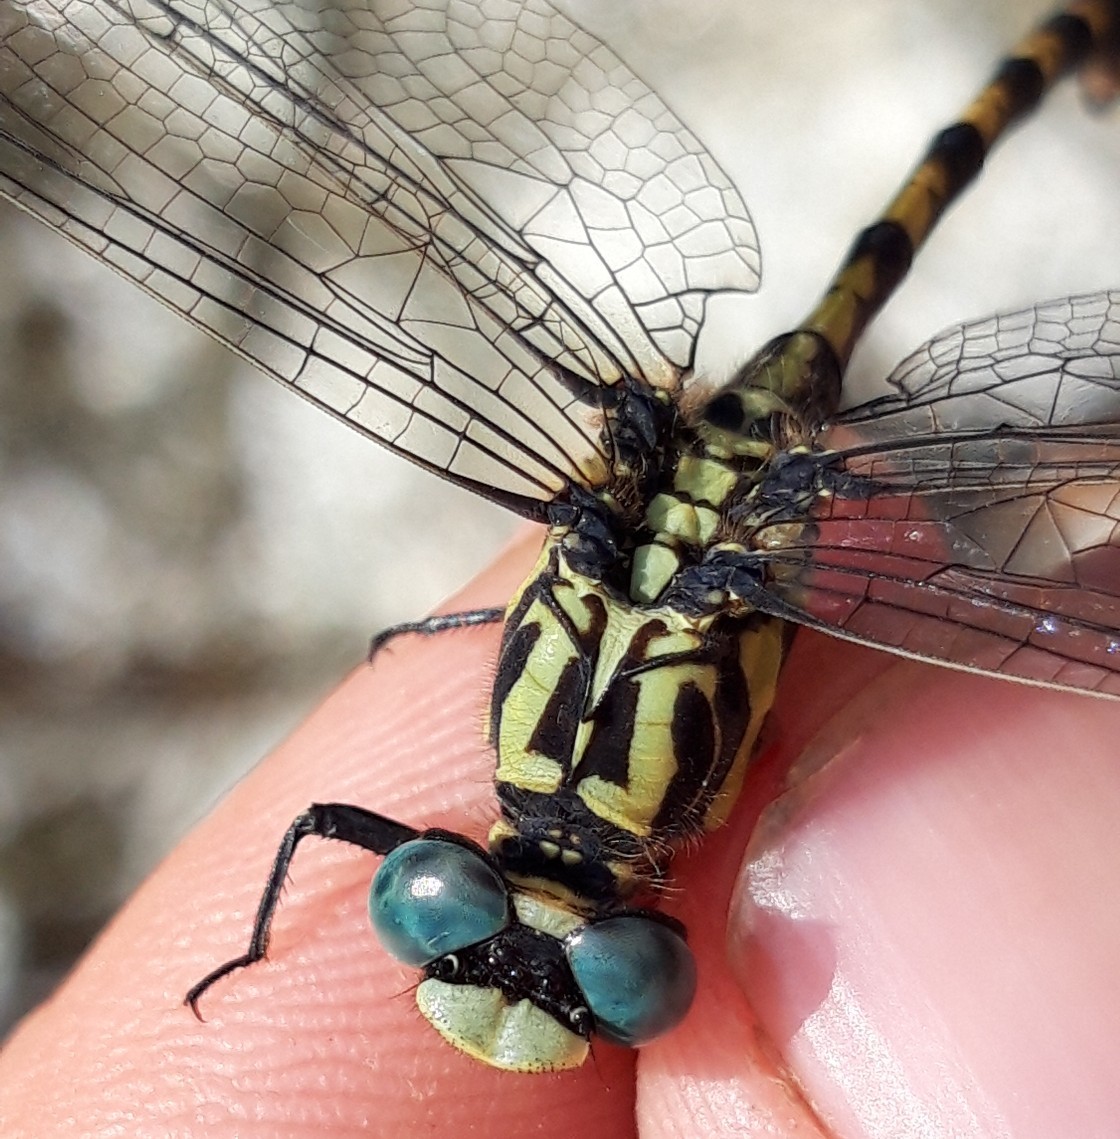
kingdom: Animalia
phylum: Arthropoda
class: Insecta
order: Odonata
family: Gomphidae
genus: Onychogomphus
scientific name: Onychogomphus uncatus
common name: Large pincertail
